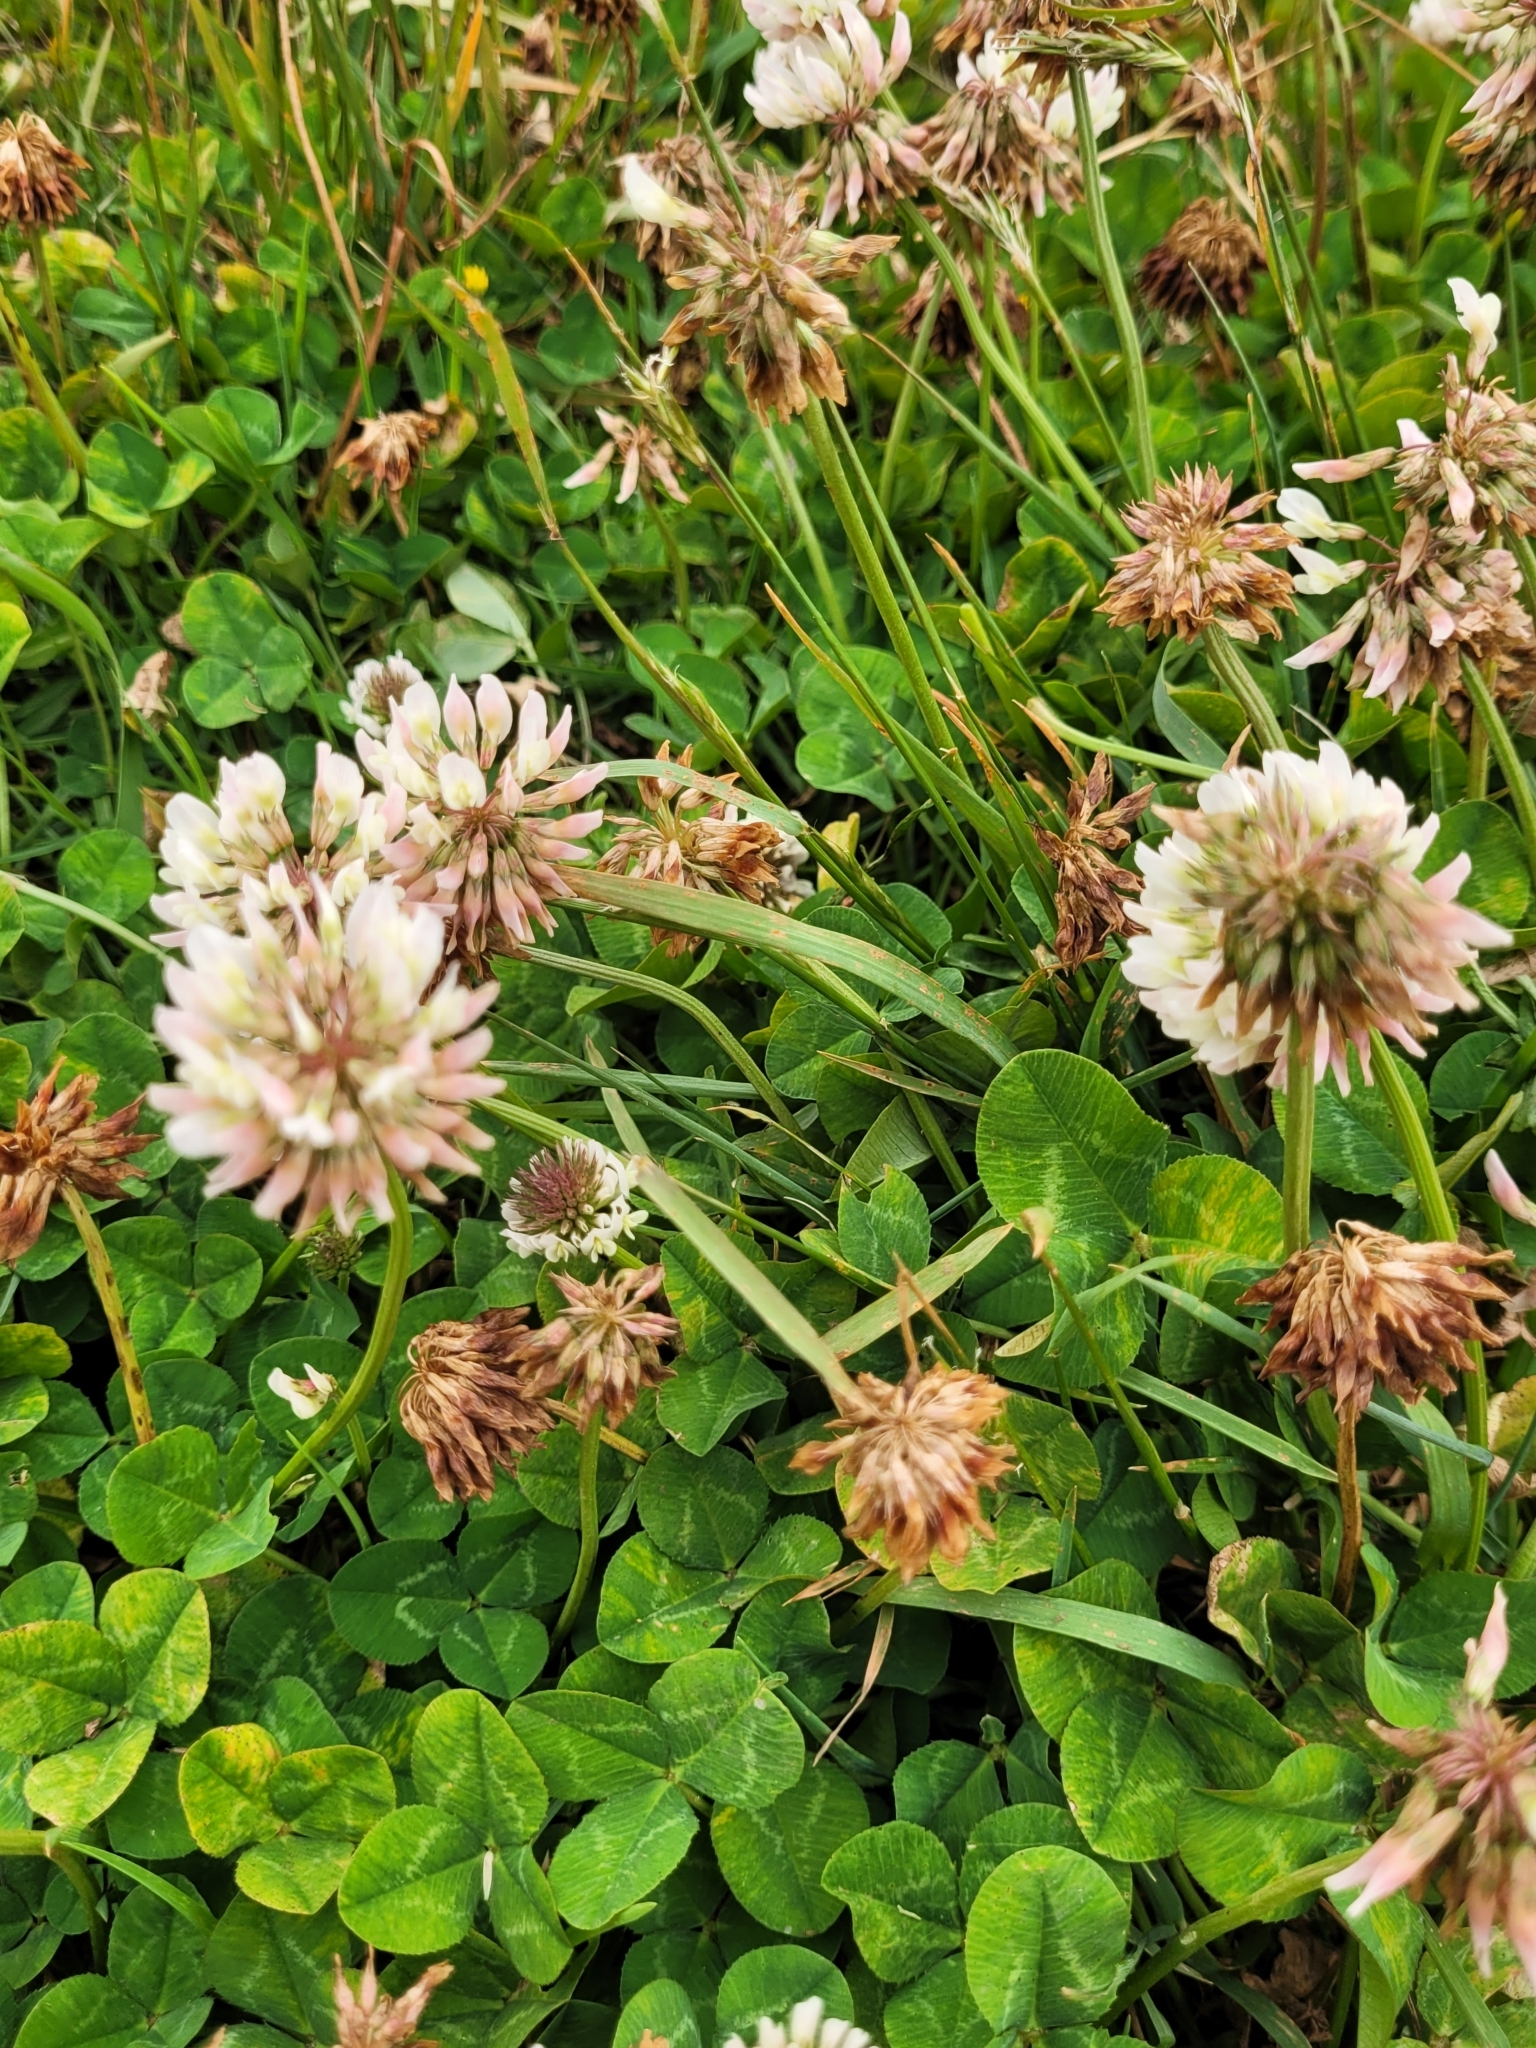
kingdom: Plantae
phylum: Tracheophyta
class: Magnoliopsida
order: Fabales
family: Fabaceae
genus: Trifolium
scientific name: Trifolium repens
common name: White clover
